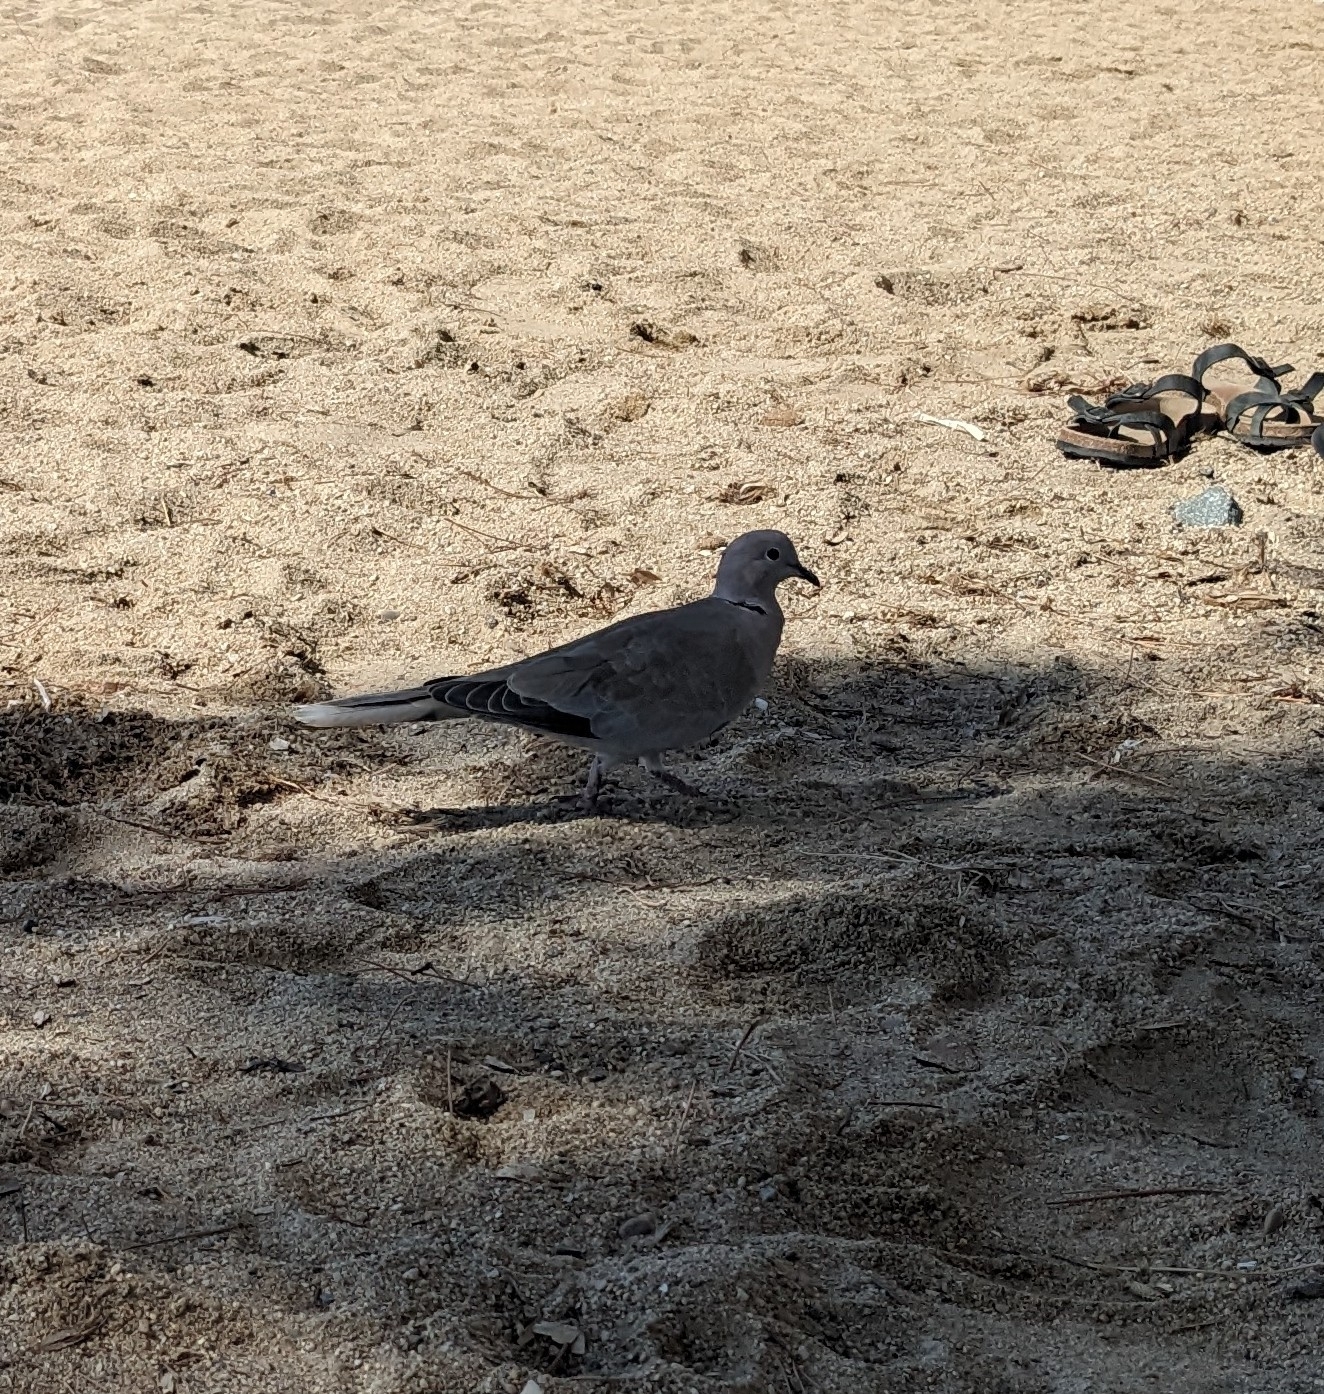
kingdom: Animalia
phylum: Chordata
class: Aves
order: Columbiformes
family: Columbidae
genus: Streptopelia
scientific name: Streptopelia decaocto
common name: Eurasian collared dove
